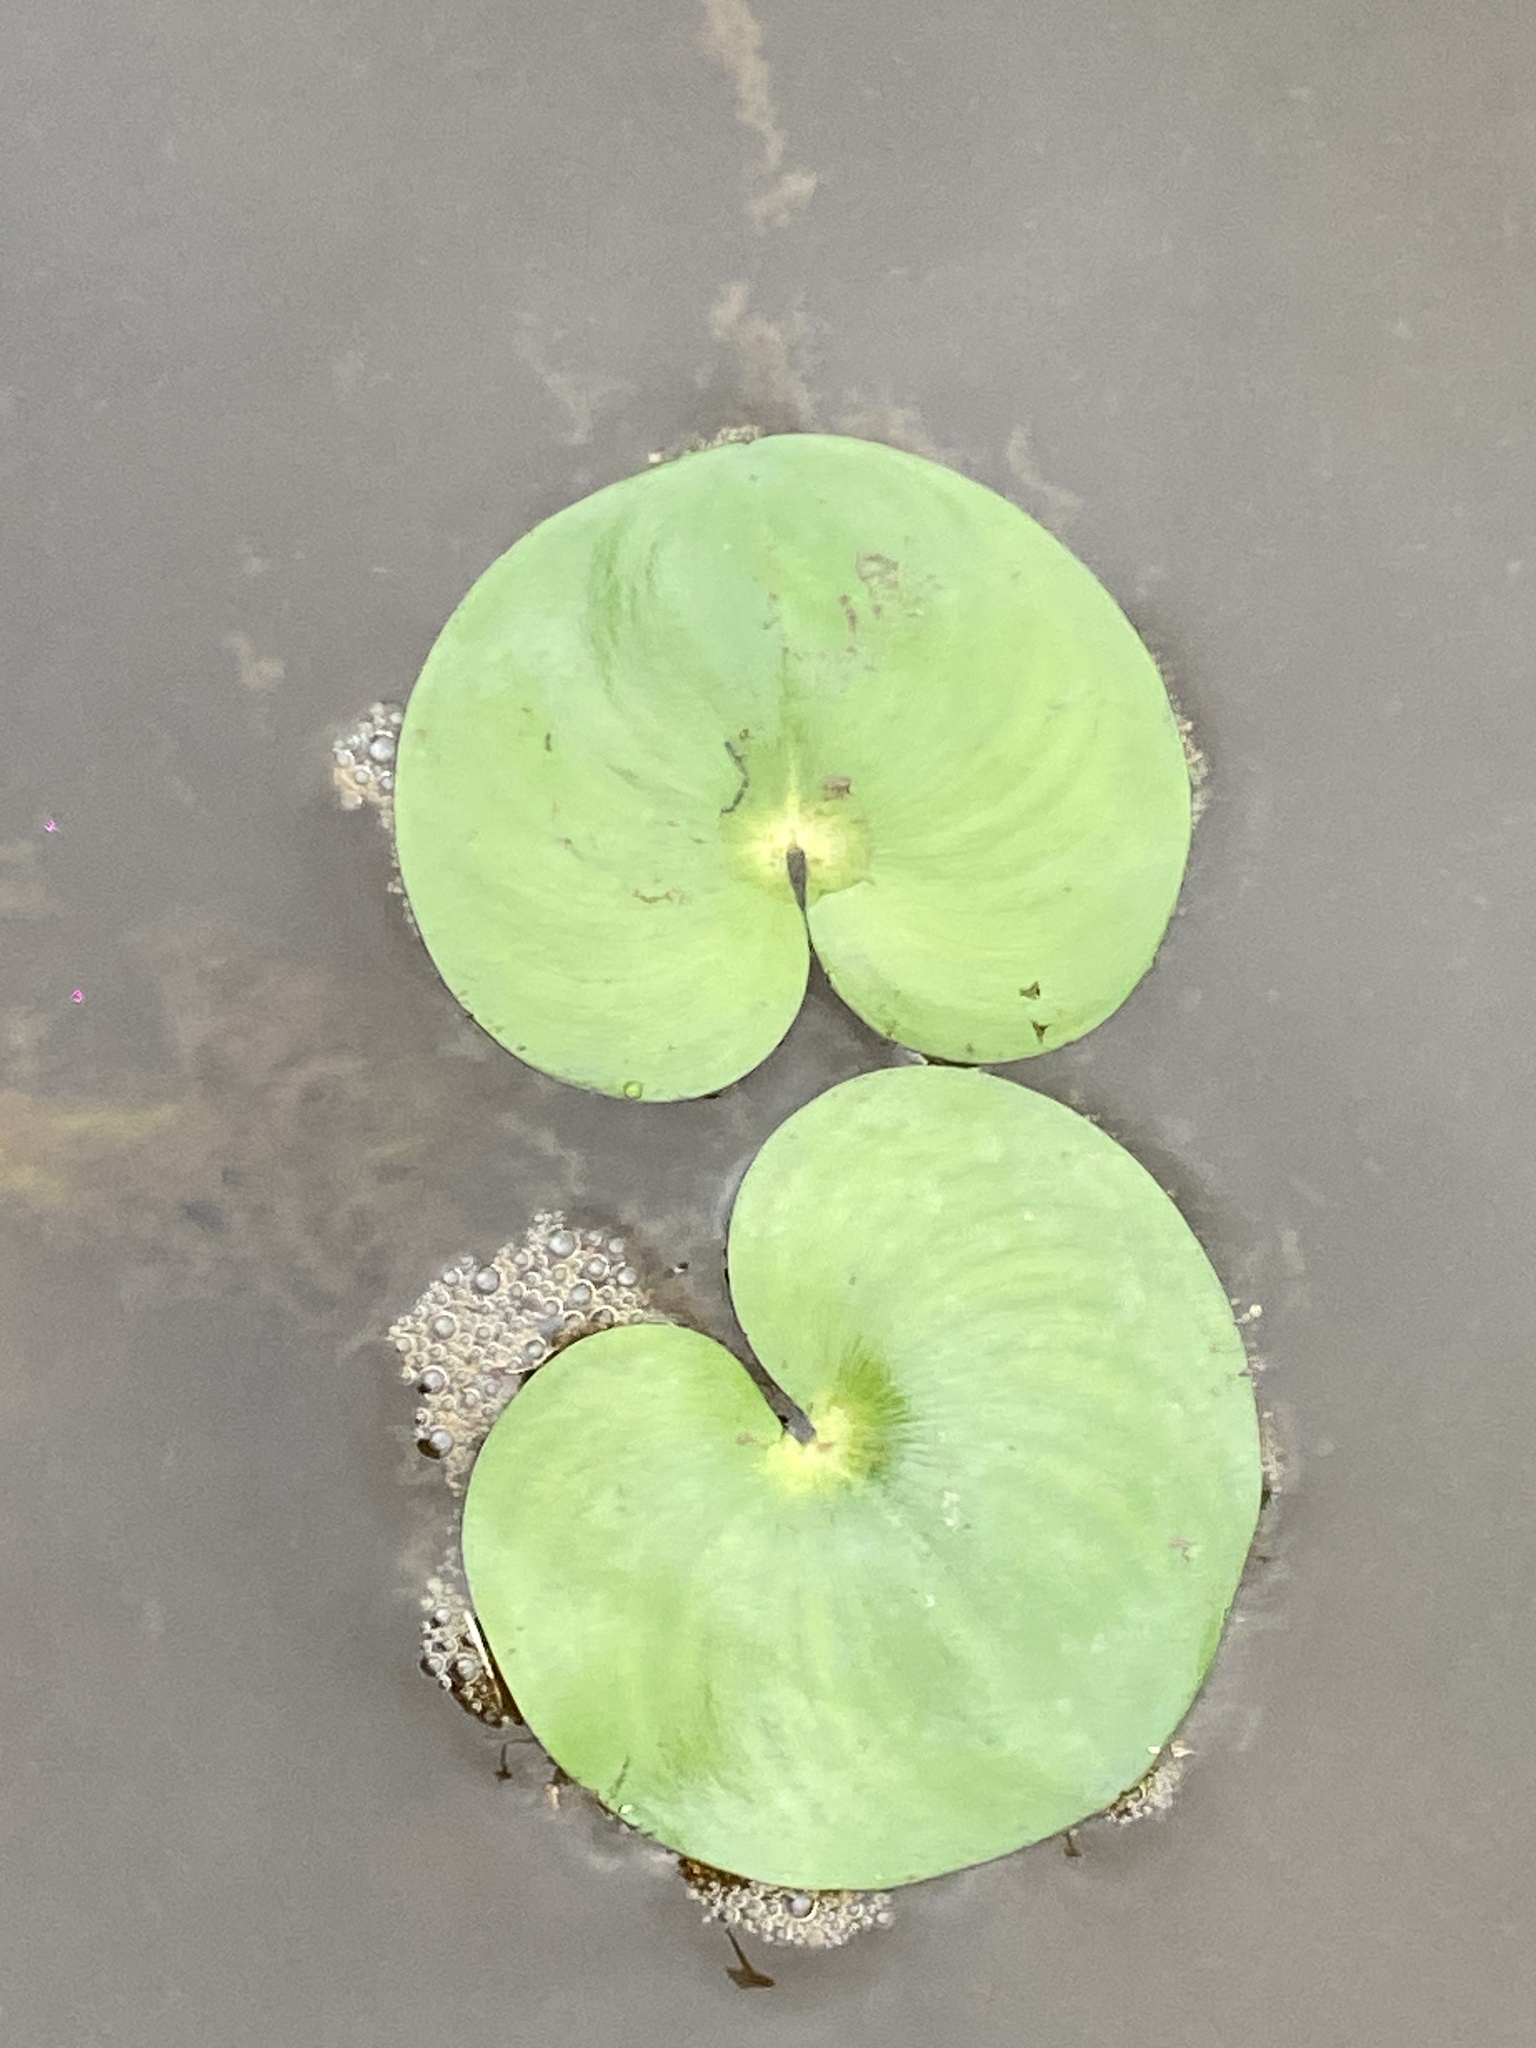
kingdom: Plantae
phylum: Tracheophyta
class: Liliopsida
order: Commelinales
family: Pontederiaceae
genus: Heteranthera
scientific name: Heteranthera reniformis
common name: Kidneyleaf mudplantain
